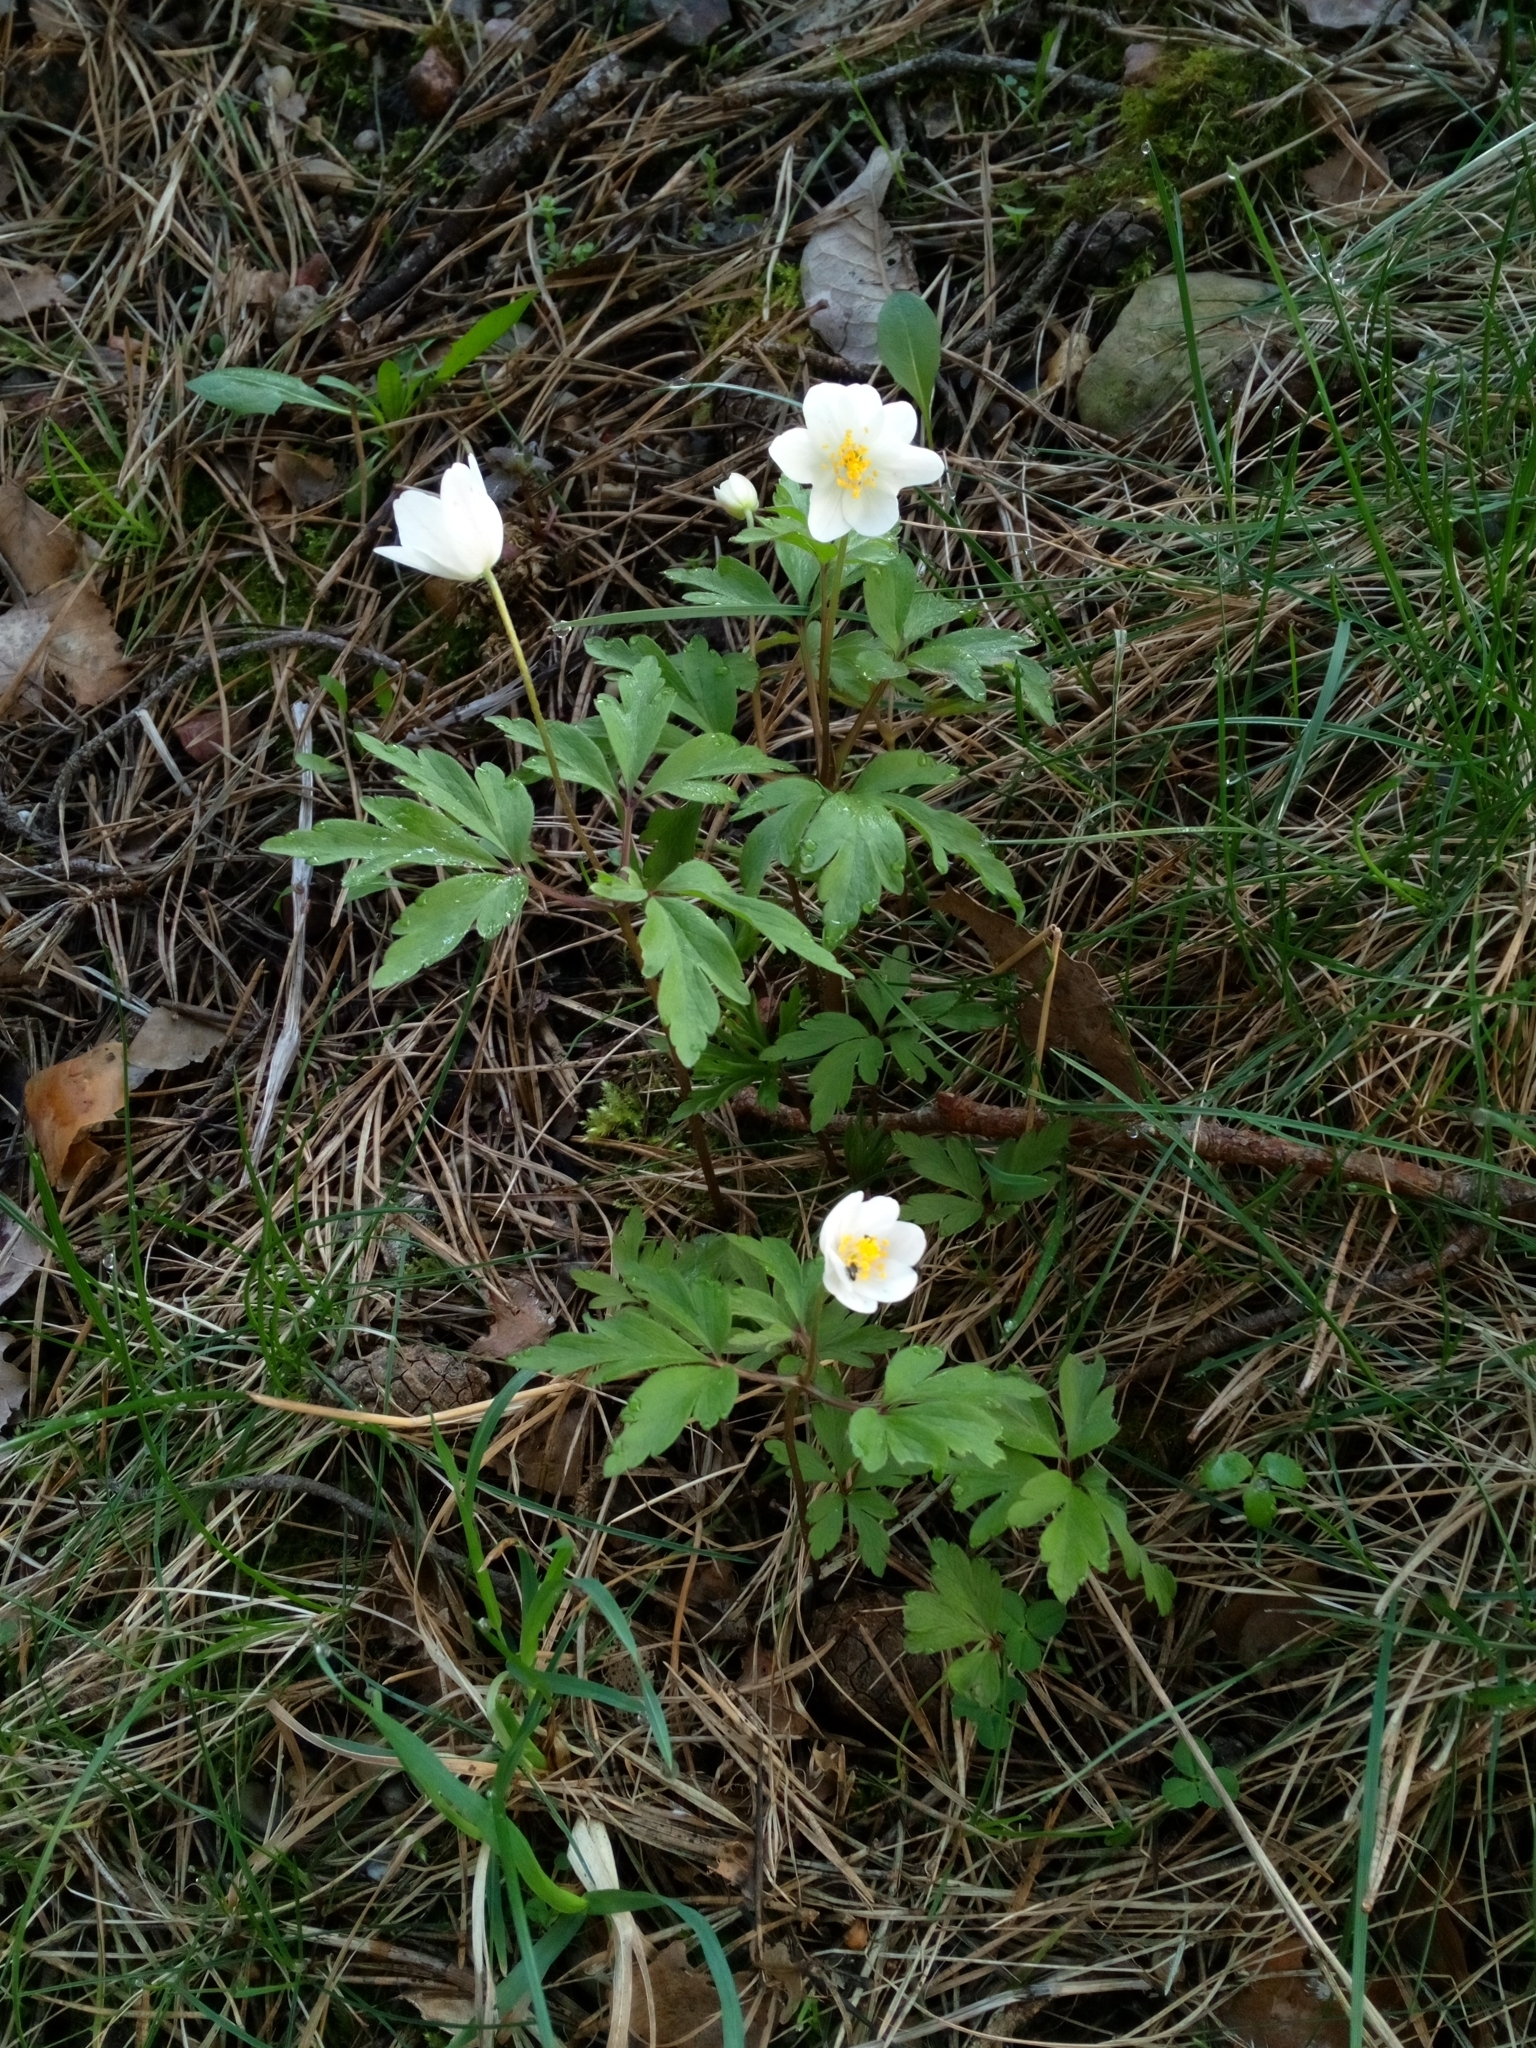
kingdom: Plantae
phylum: Tracheophyta
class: Magnoliopsida
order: Ranunculales
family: Ranunculaceae
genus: Anemone
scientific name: Anemone nemorosa
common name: Wood anemone
